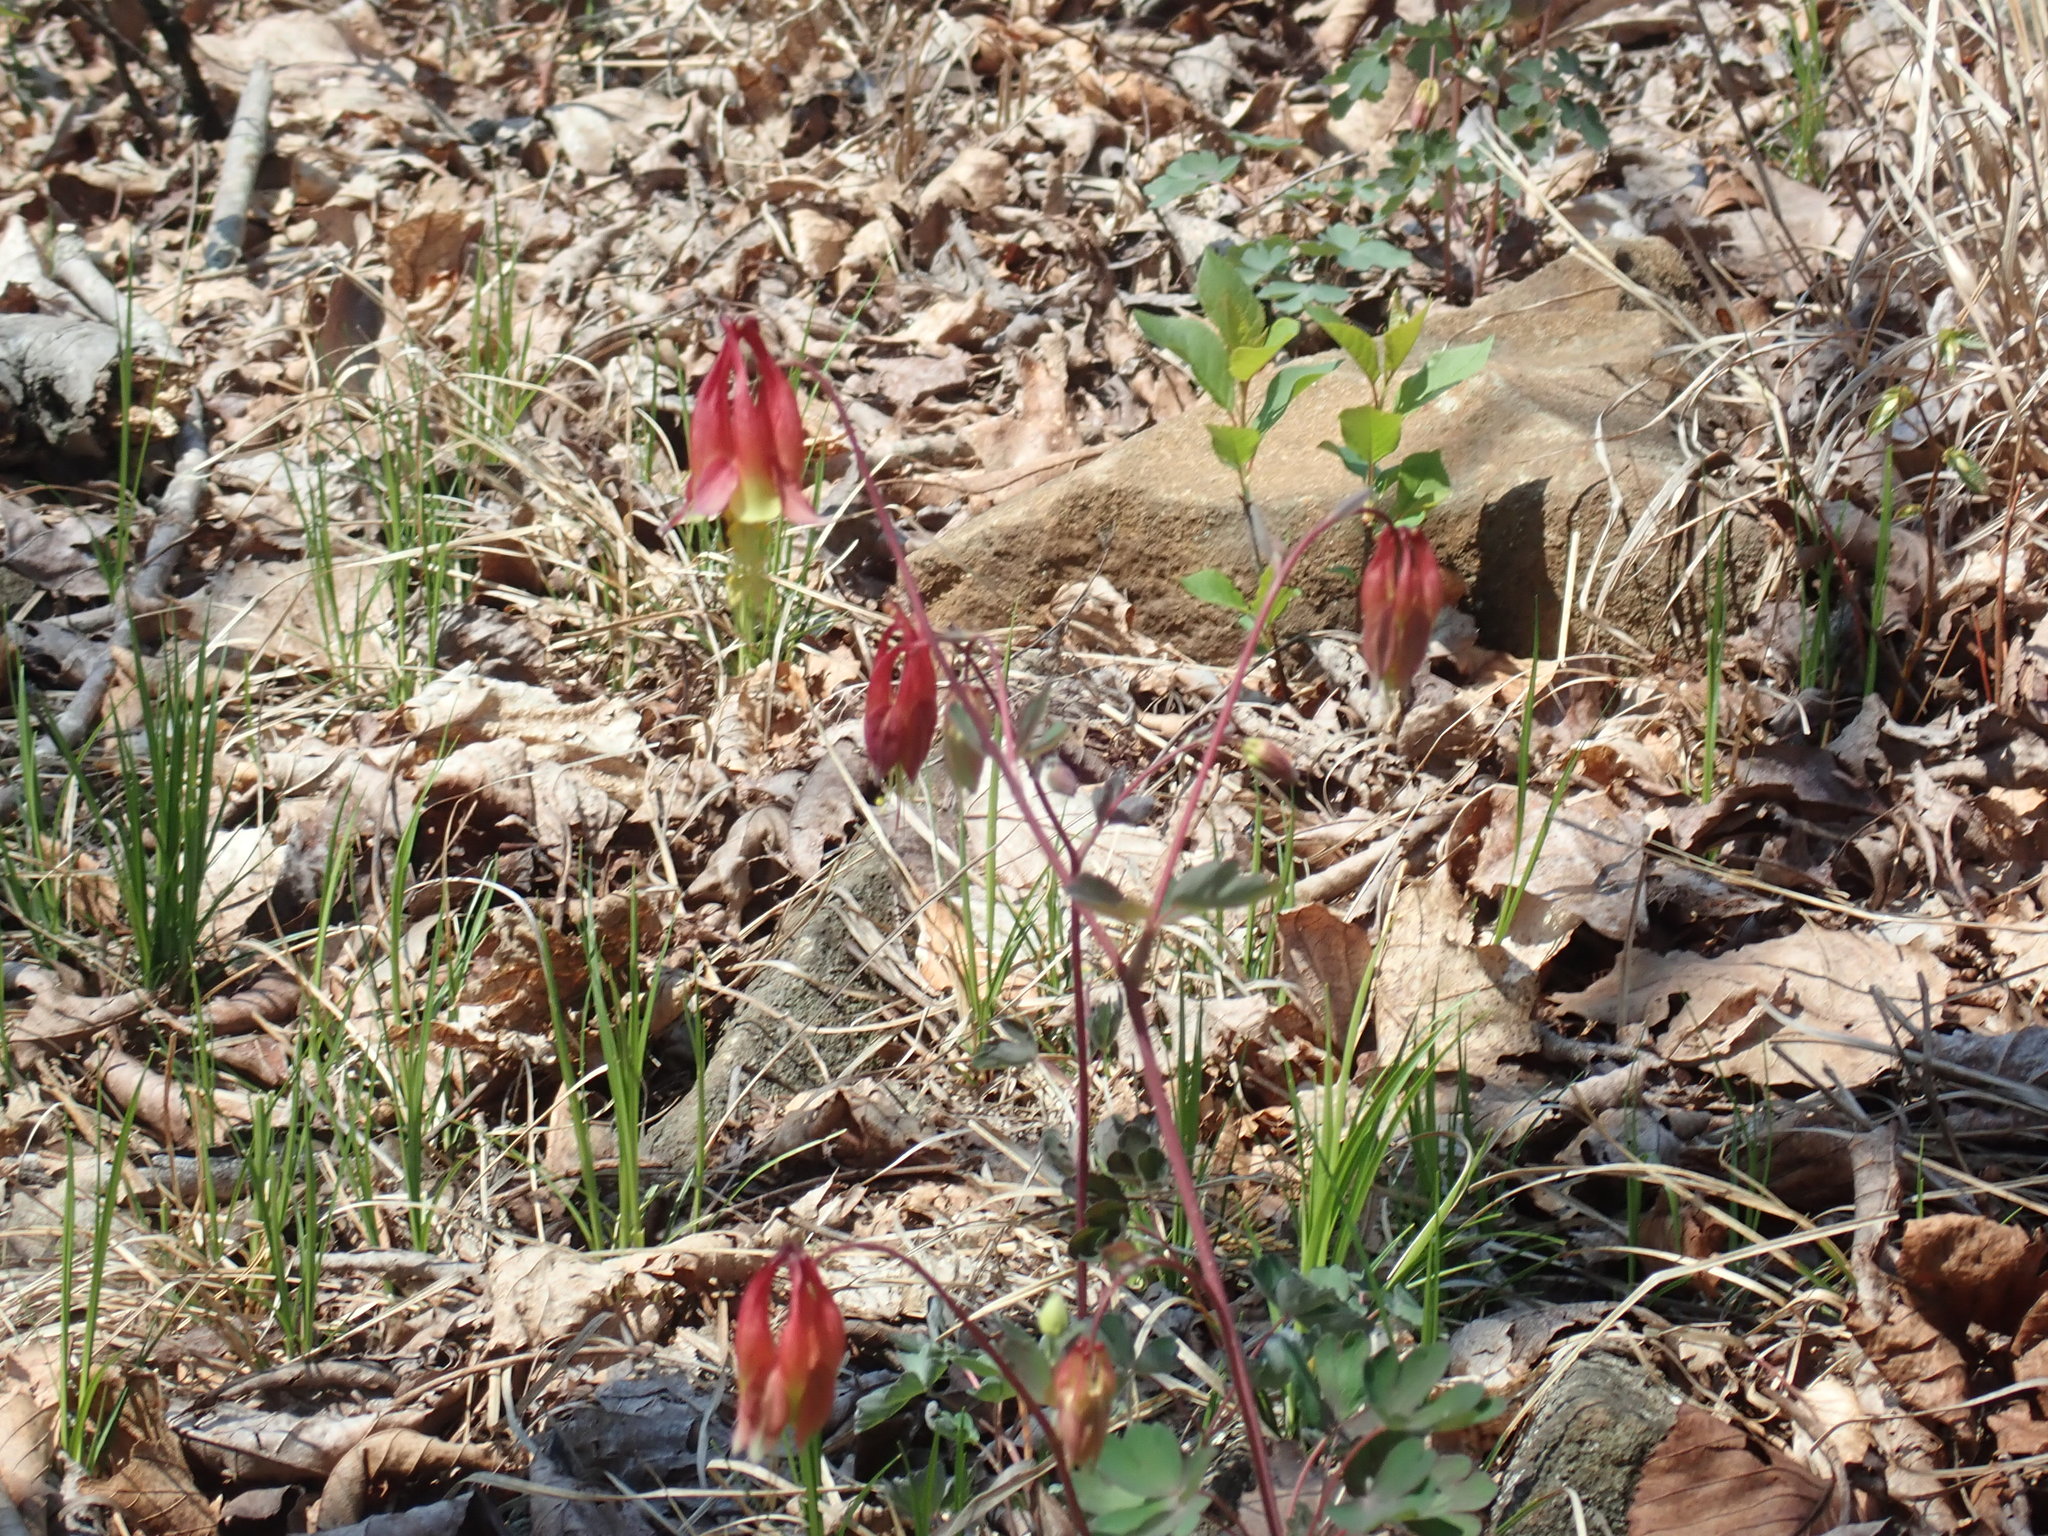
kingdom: Plantae
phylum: Tracheophyta
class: Magnoliopsida
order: Ranunculales
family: Ranunculaceae
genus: Aquilegia
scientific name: Aquilegia canadensis
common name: American columbine
